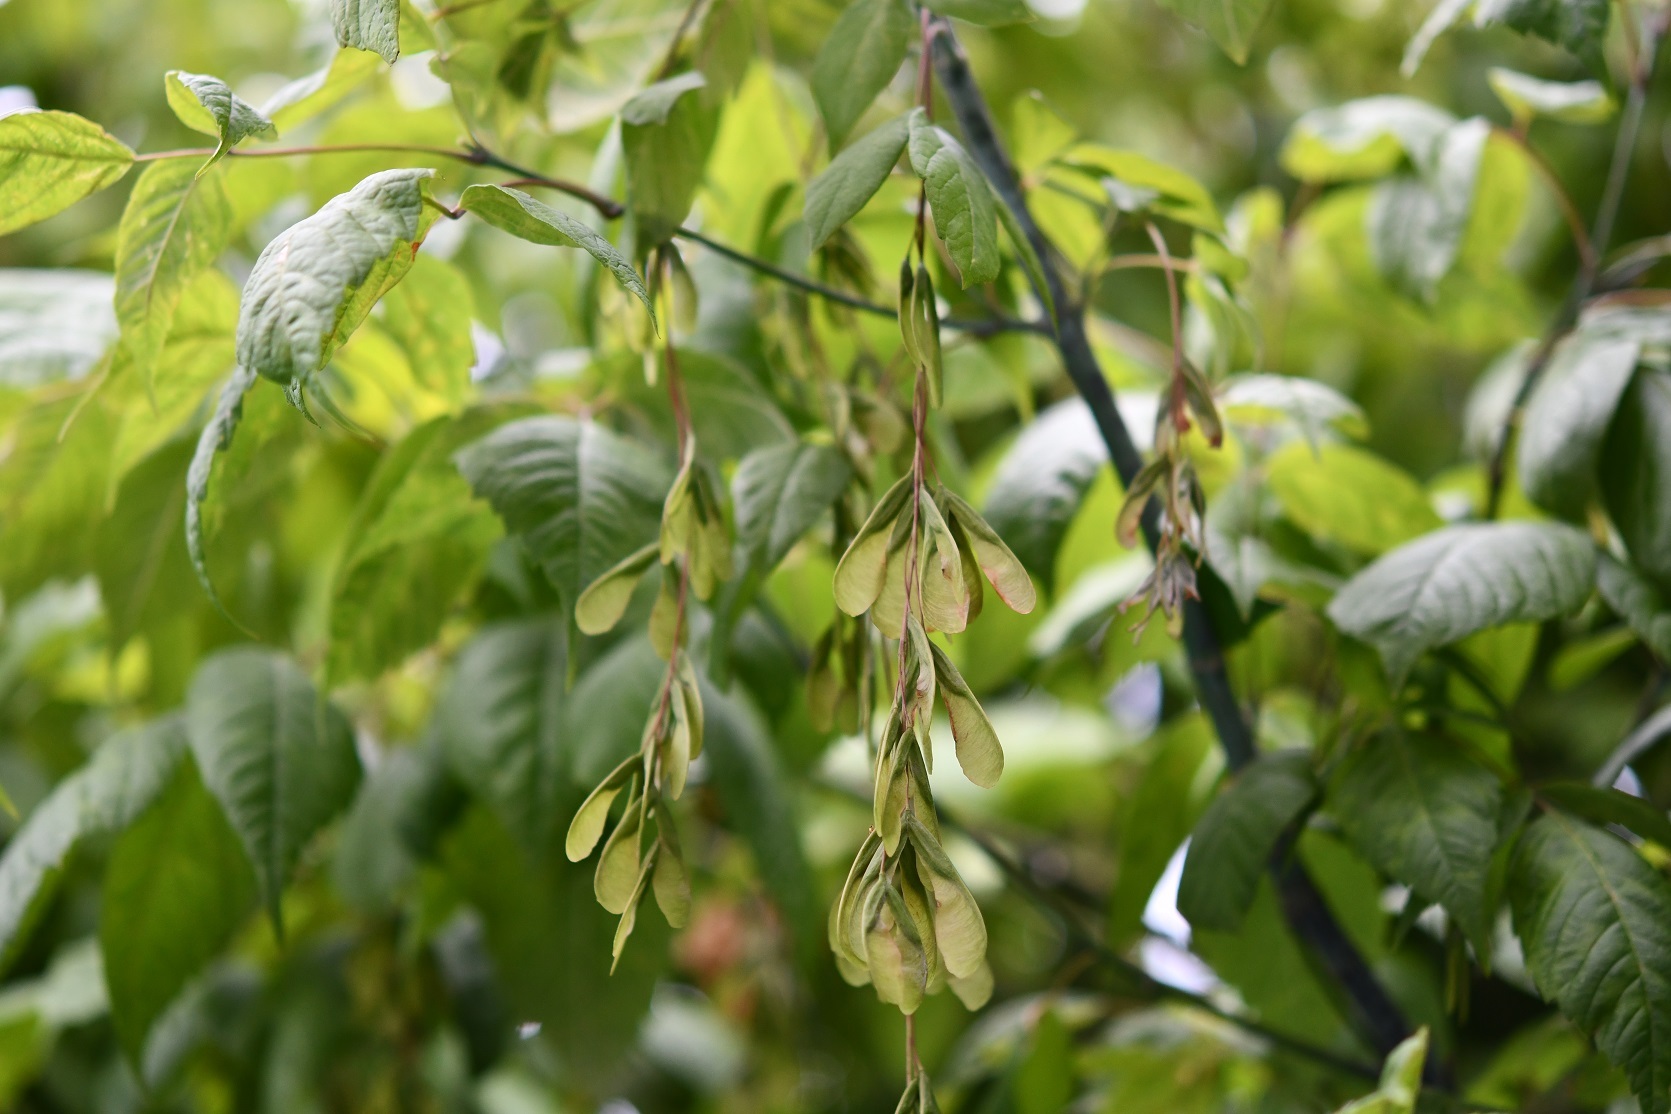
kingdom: Plantae
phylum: Tracheophyta
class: Magnoliopsida
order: Sapindales
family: Sapindaceae
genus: Acer
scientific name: Acer negundo
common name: Ashleaf maple
